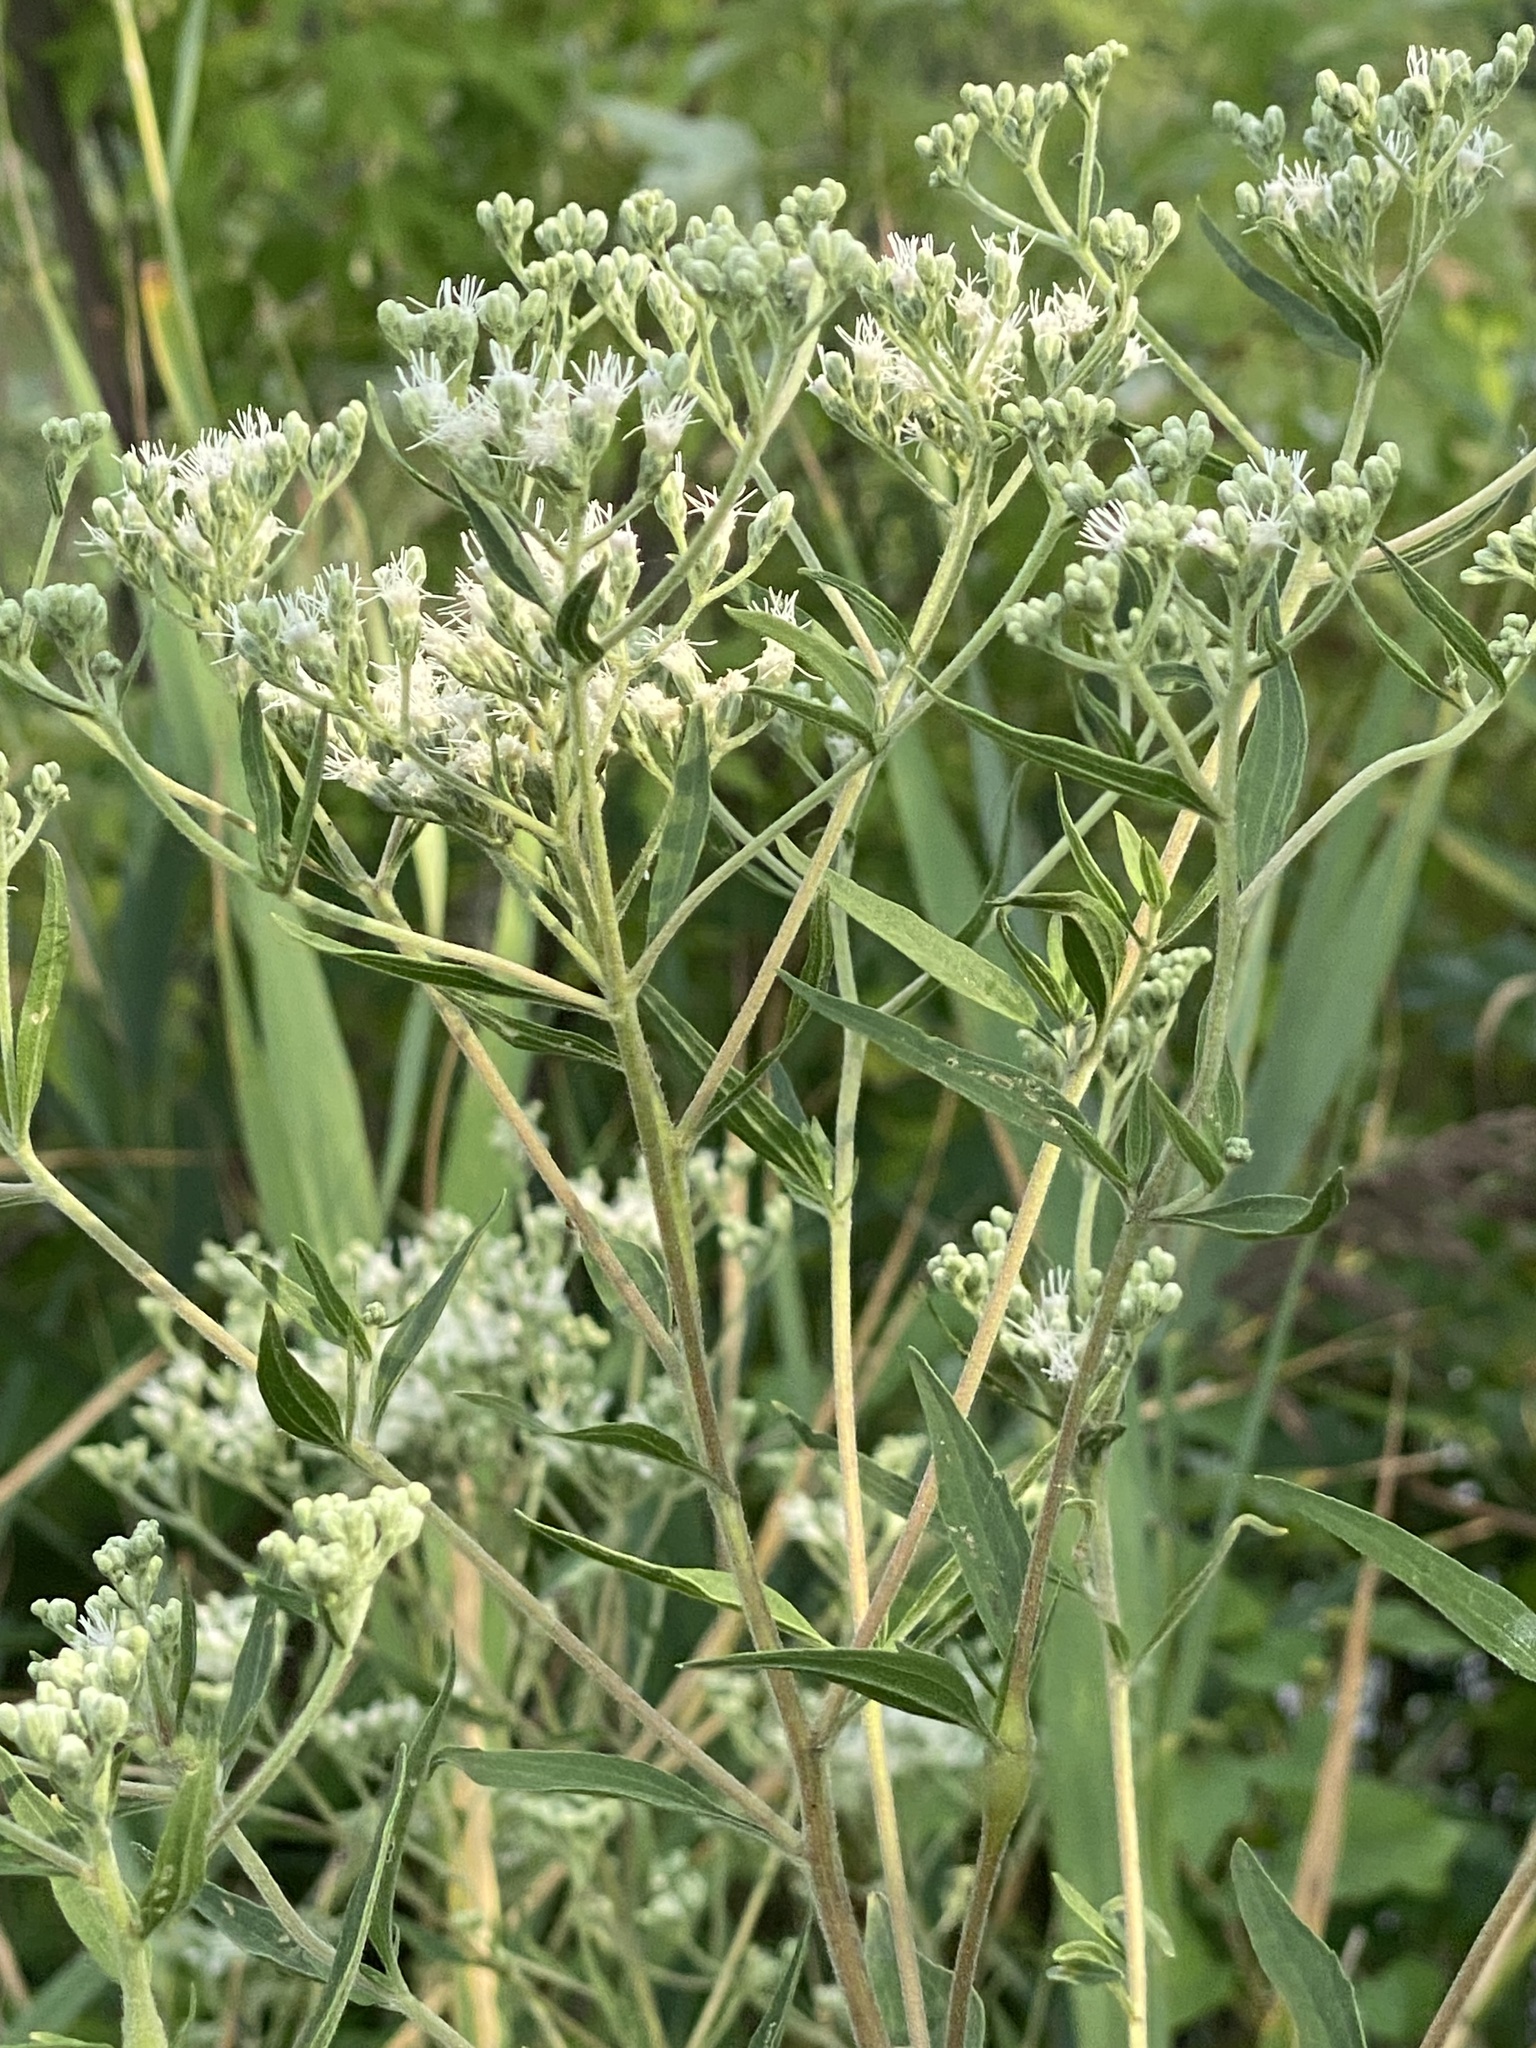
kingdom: Plantae
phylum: Tracheophyta
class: Magnoliopsida
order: Asterales
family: Asteraceae
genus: Eupatorium
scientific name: Eupatorium serotinum
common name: Late boneset
